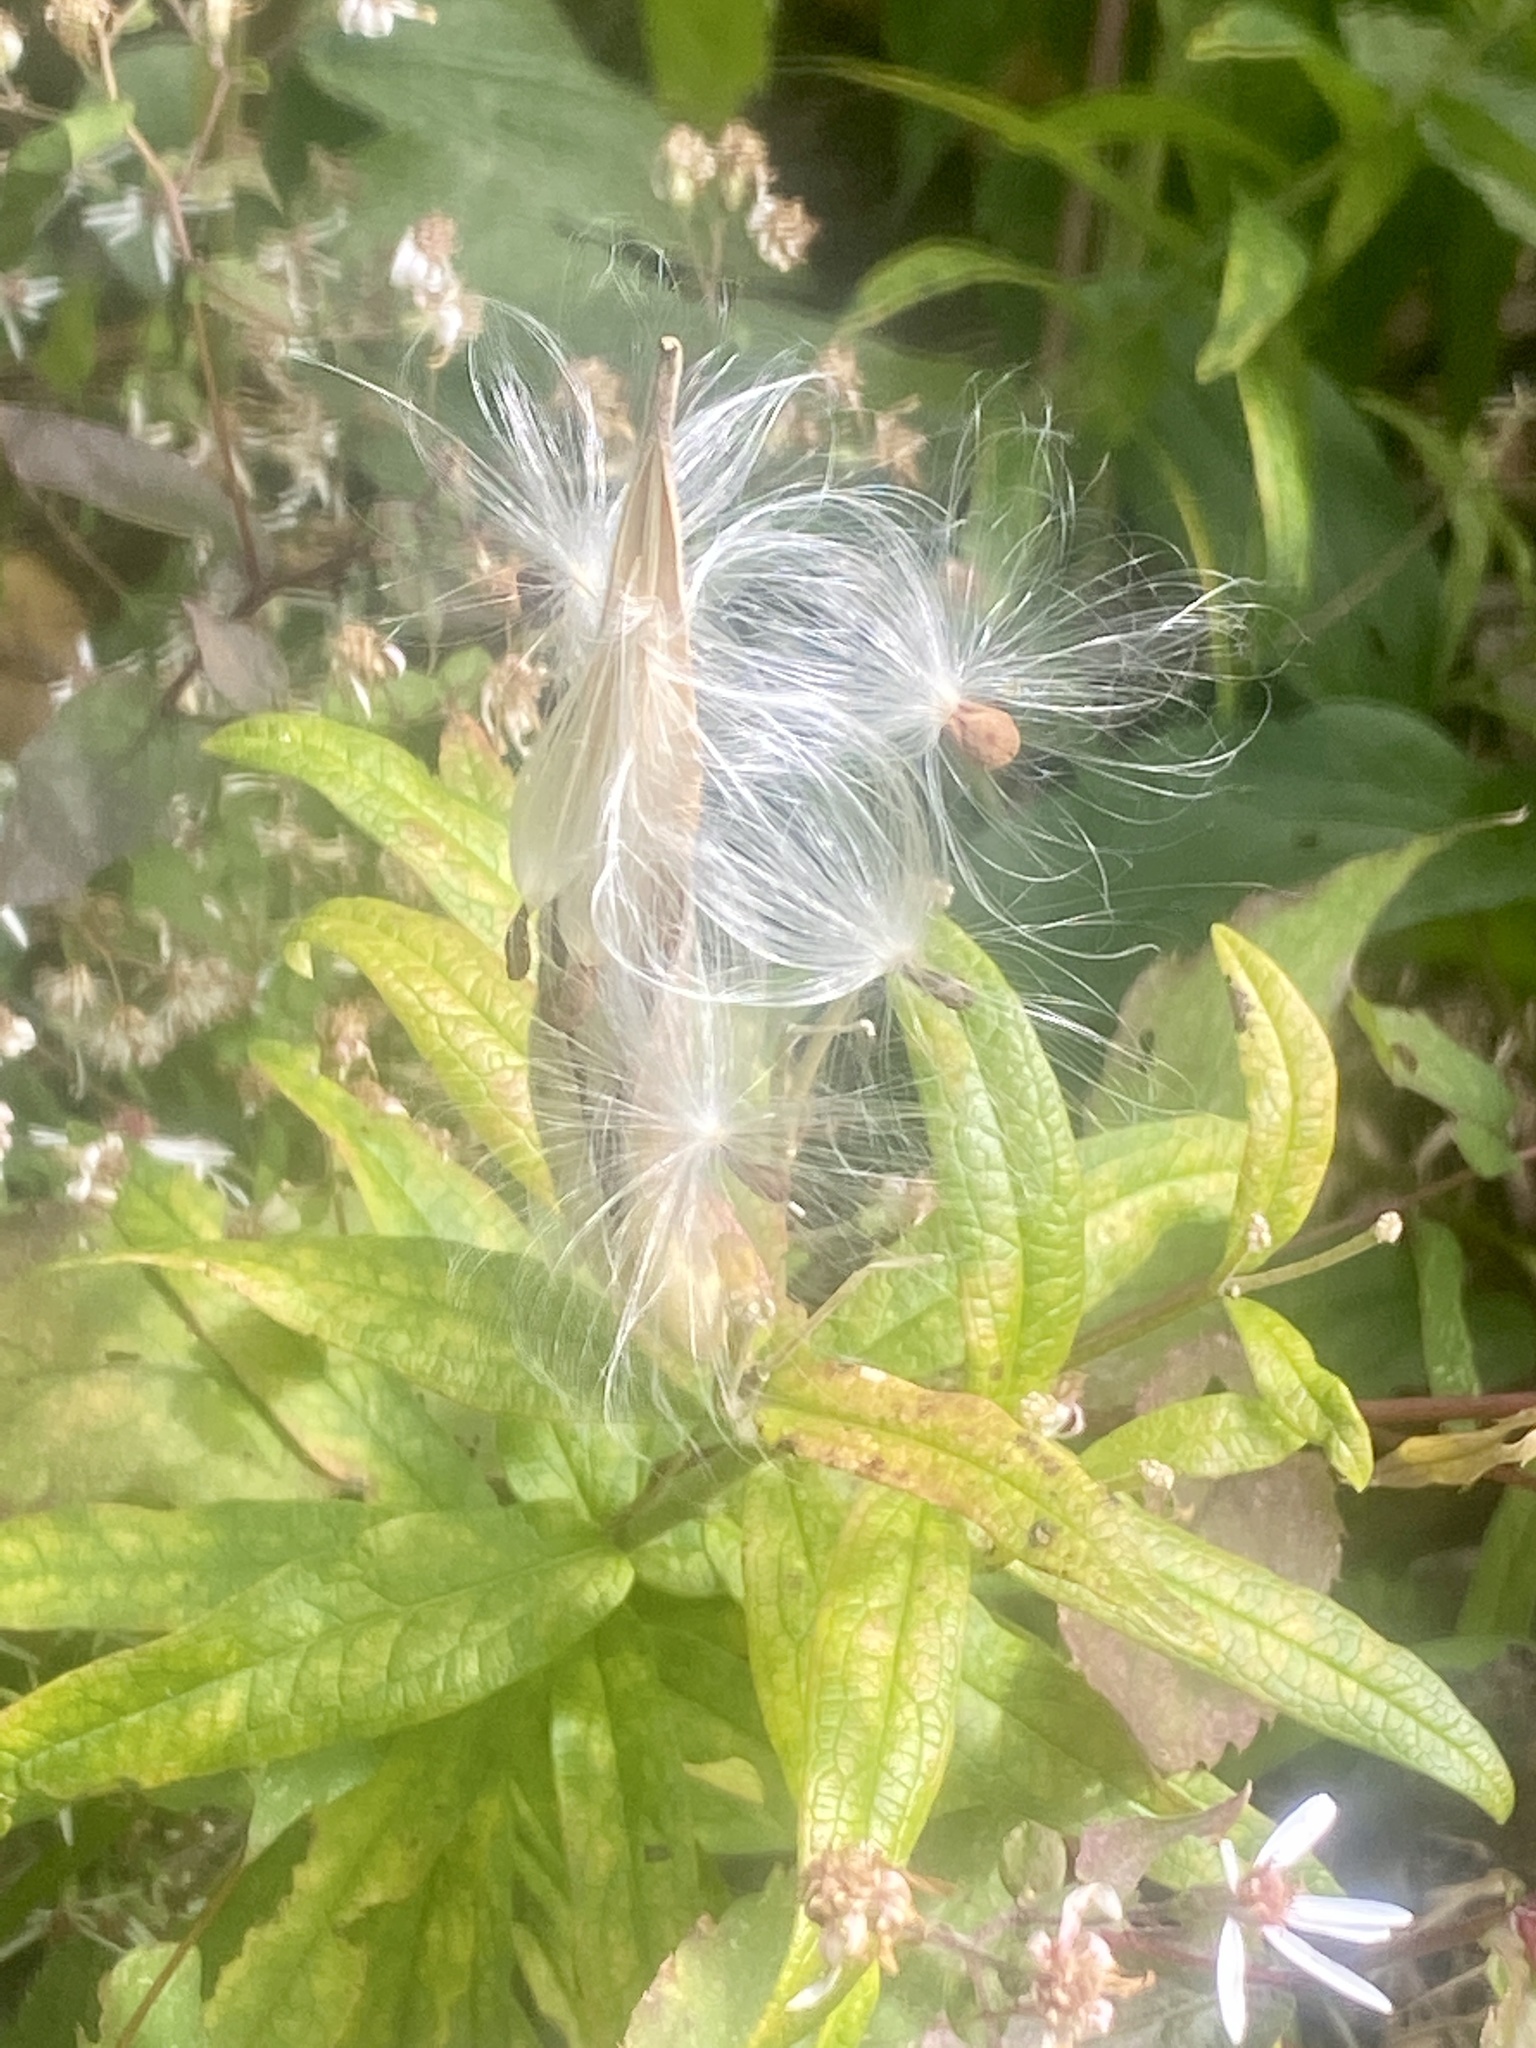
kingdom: Plantae
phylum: Tracheophyta
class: Magnoliopsida
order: Gentianales
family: Apocynaceae
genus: Asclepias
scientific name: Asclepias tuberosa
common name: Butterfly milkweed
